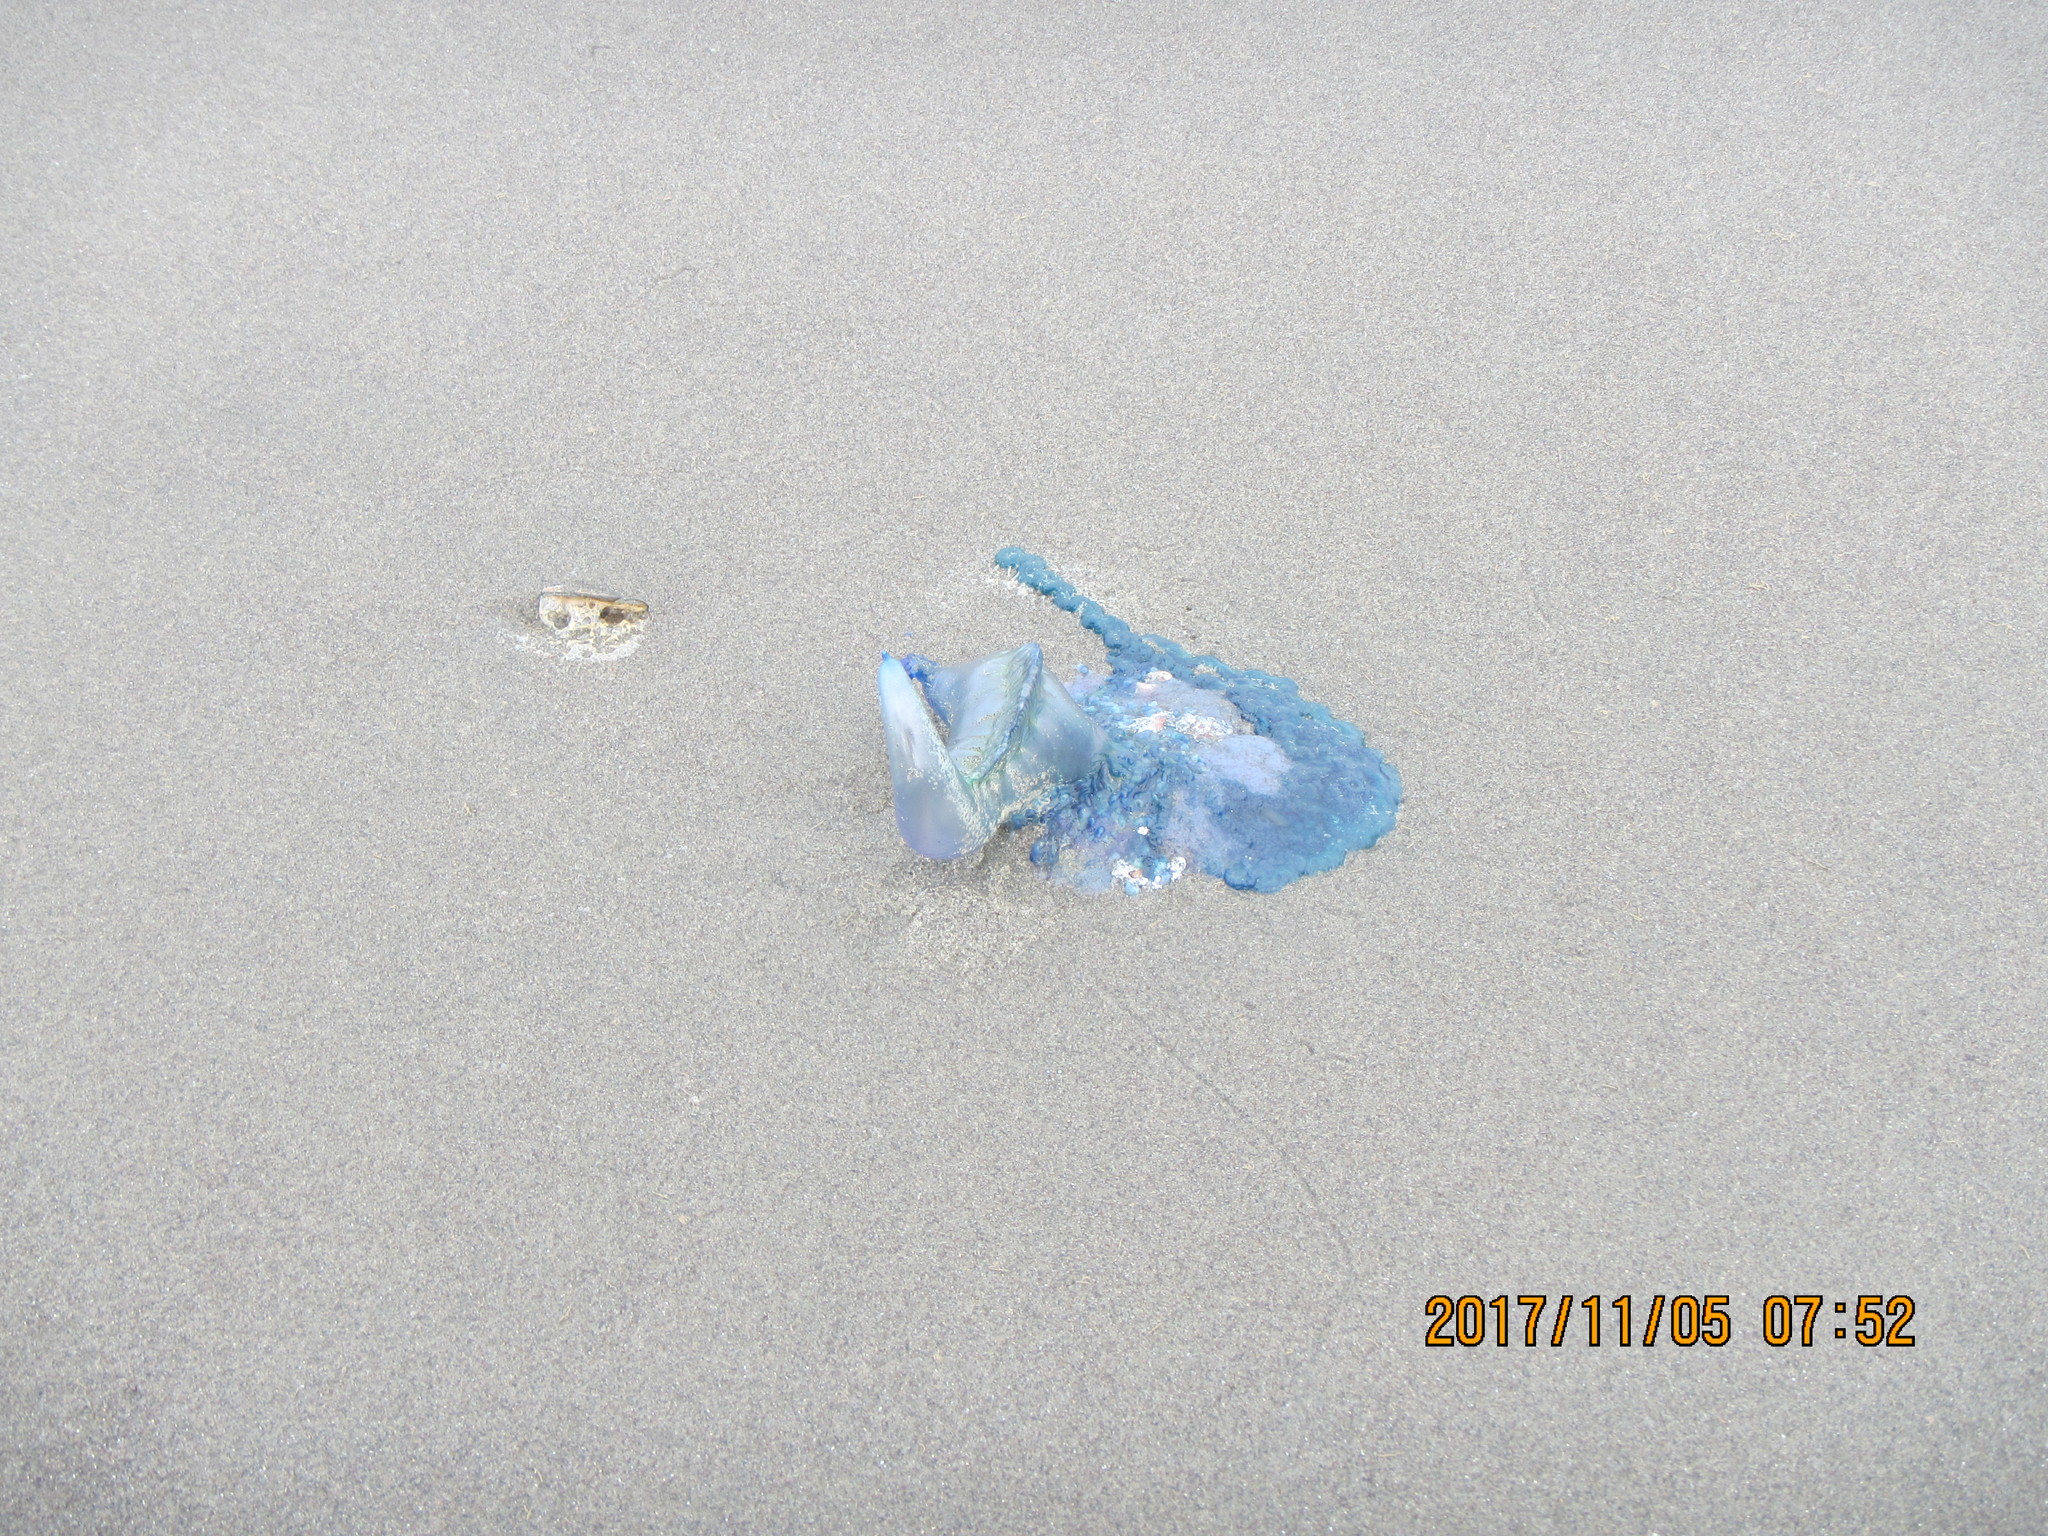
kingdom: Animalia
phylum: Cnidaria
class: Hydrozoa
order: Siphonophorae
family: Physaliidae
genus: Physalia
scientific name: Physalia physalis
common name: Portuguese man-of-war
